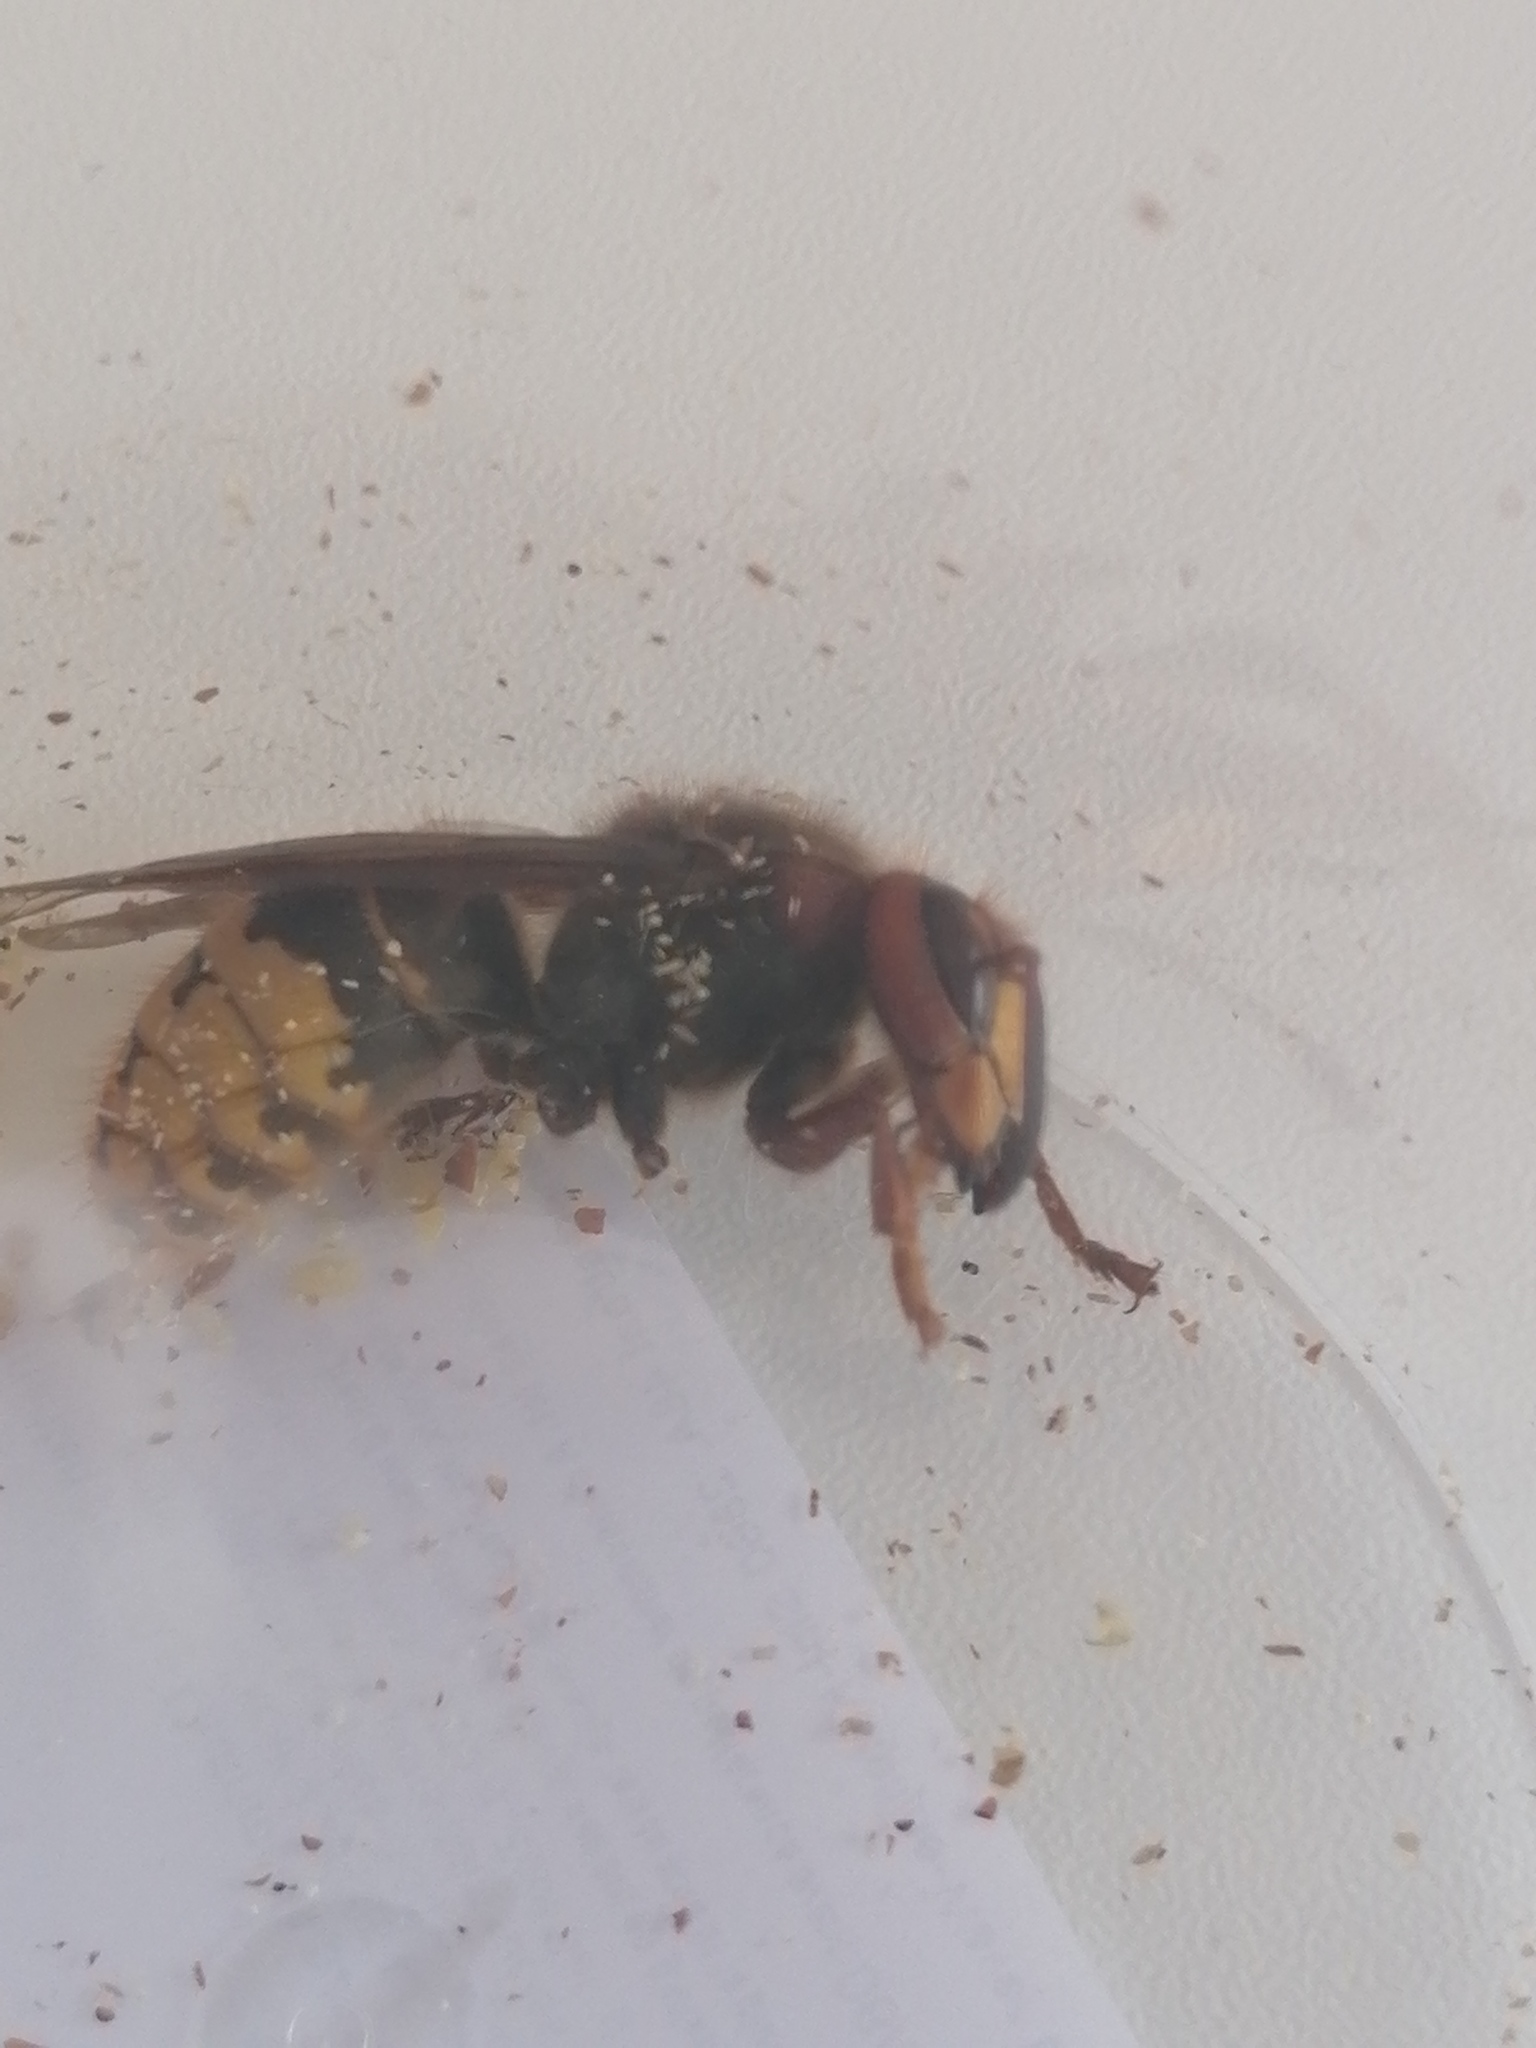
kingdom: Animalia
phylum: Arthropoda
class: Insecta
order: Hymenoptera
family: Vespidae
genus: Vespa
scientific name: Vespa crabro
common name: Hornet
